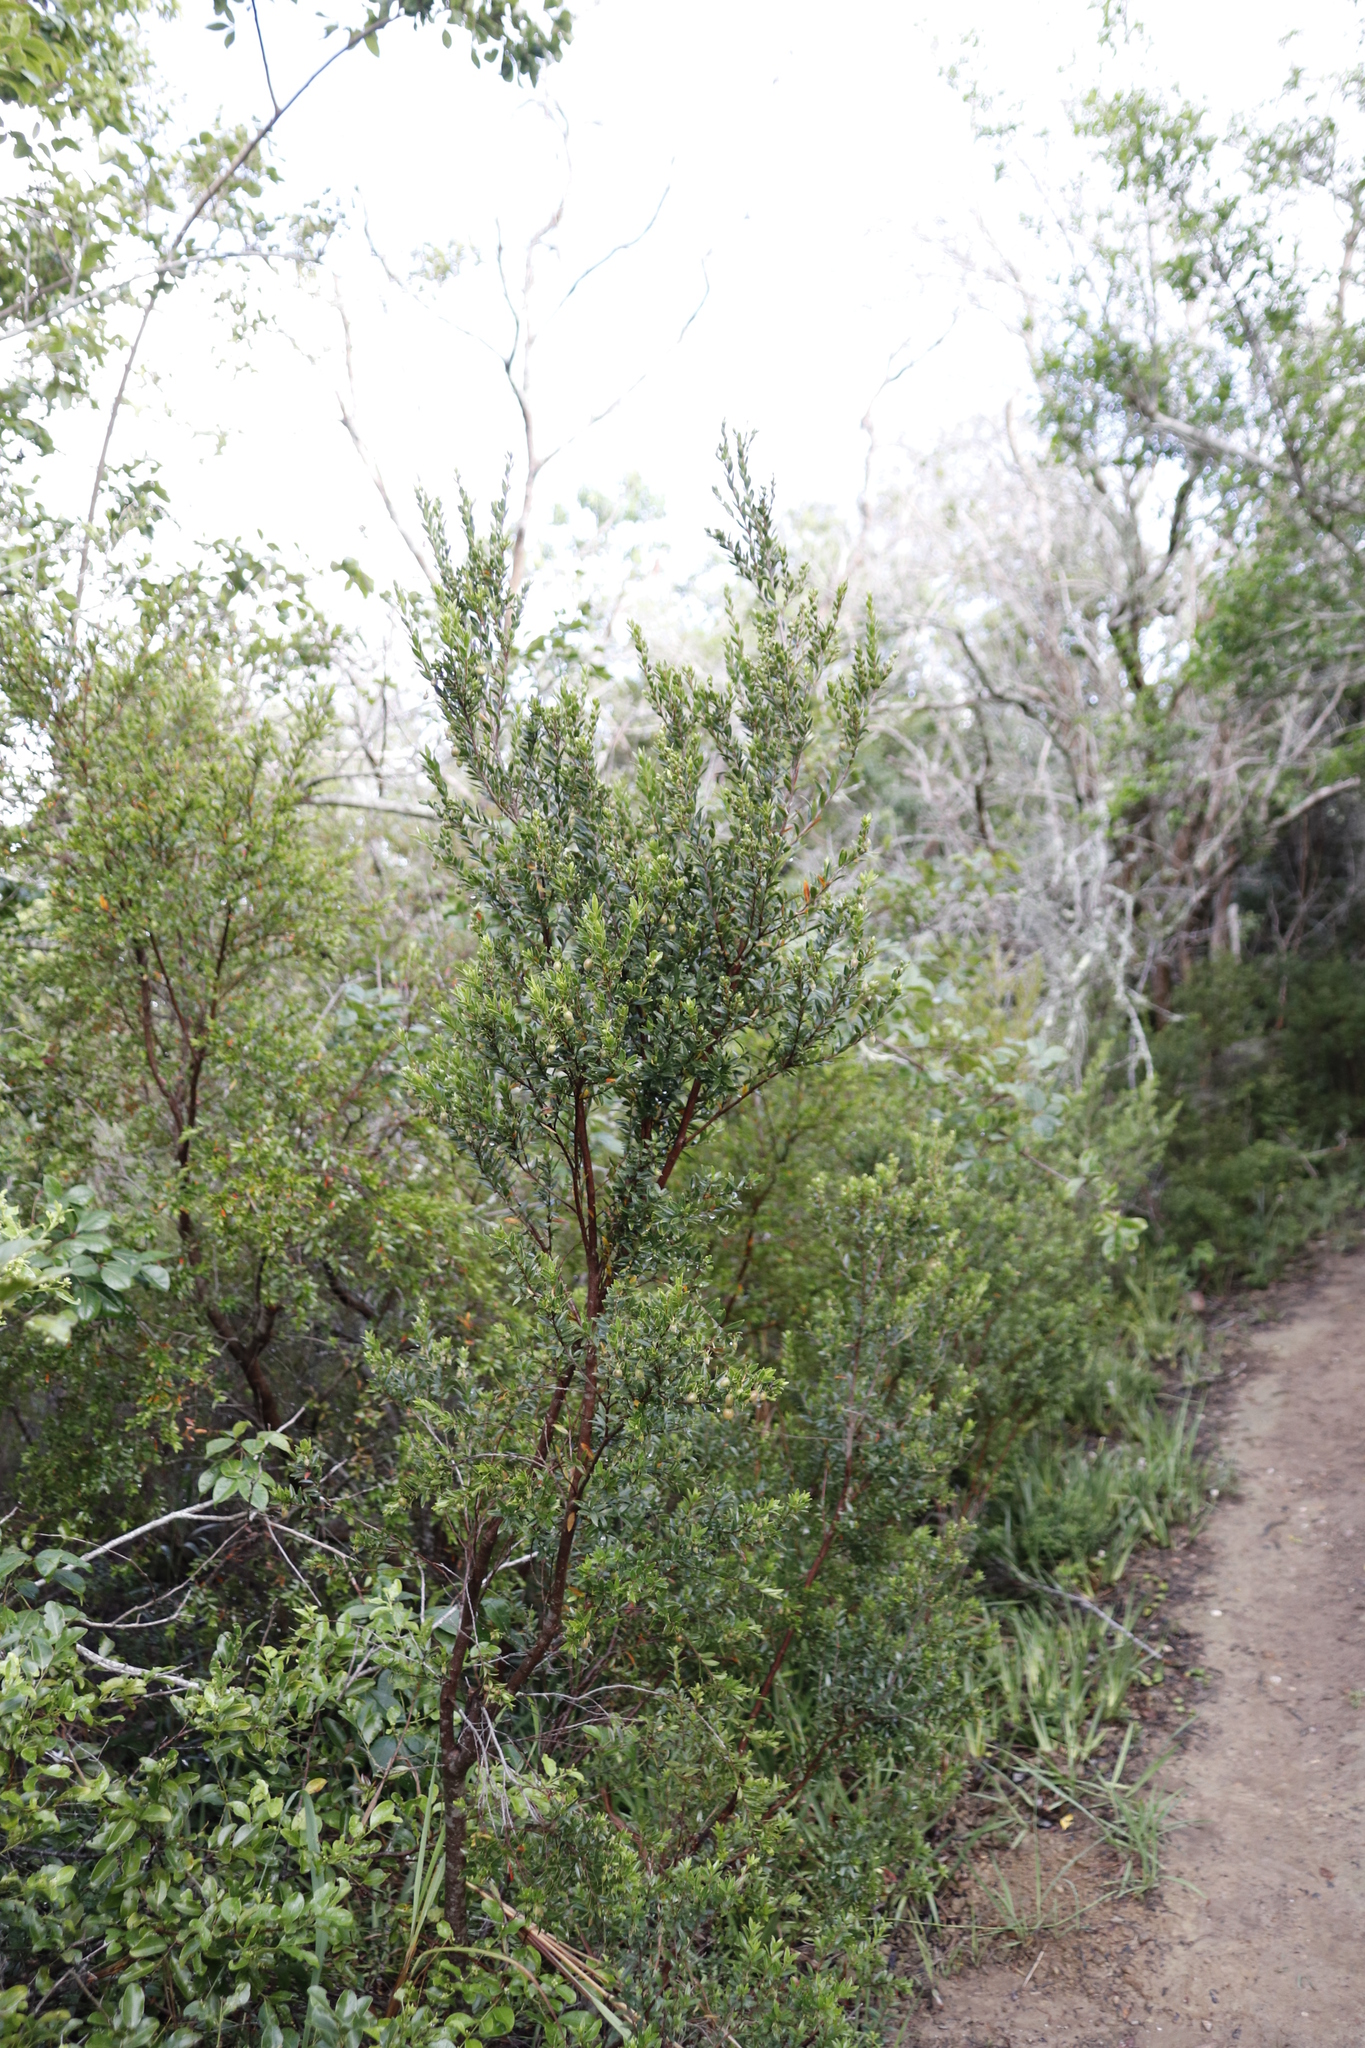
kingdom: Plantae
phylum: Tracheophyta
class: Magnoliopsida
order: Ericales
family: Ebenaceae
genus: Diospyros
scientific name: Diospyros glabra
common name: Fynbos star apple
